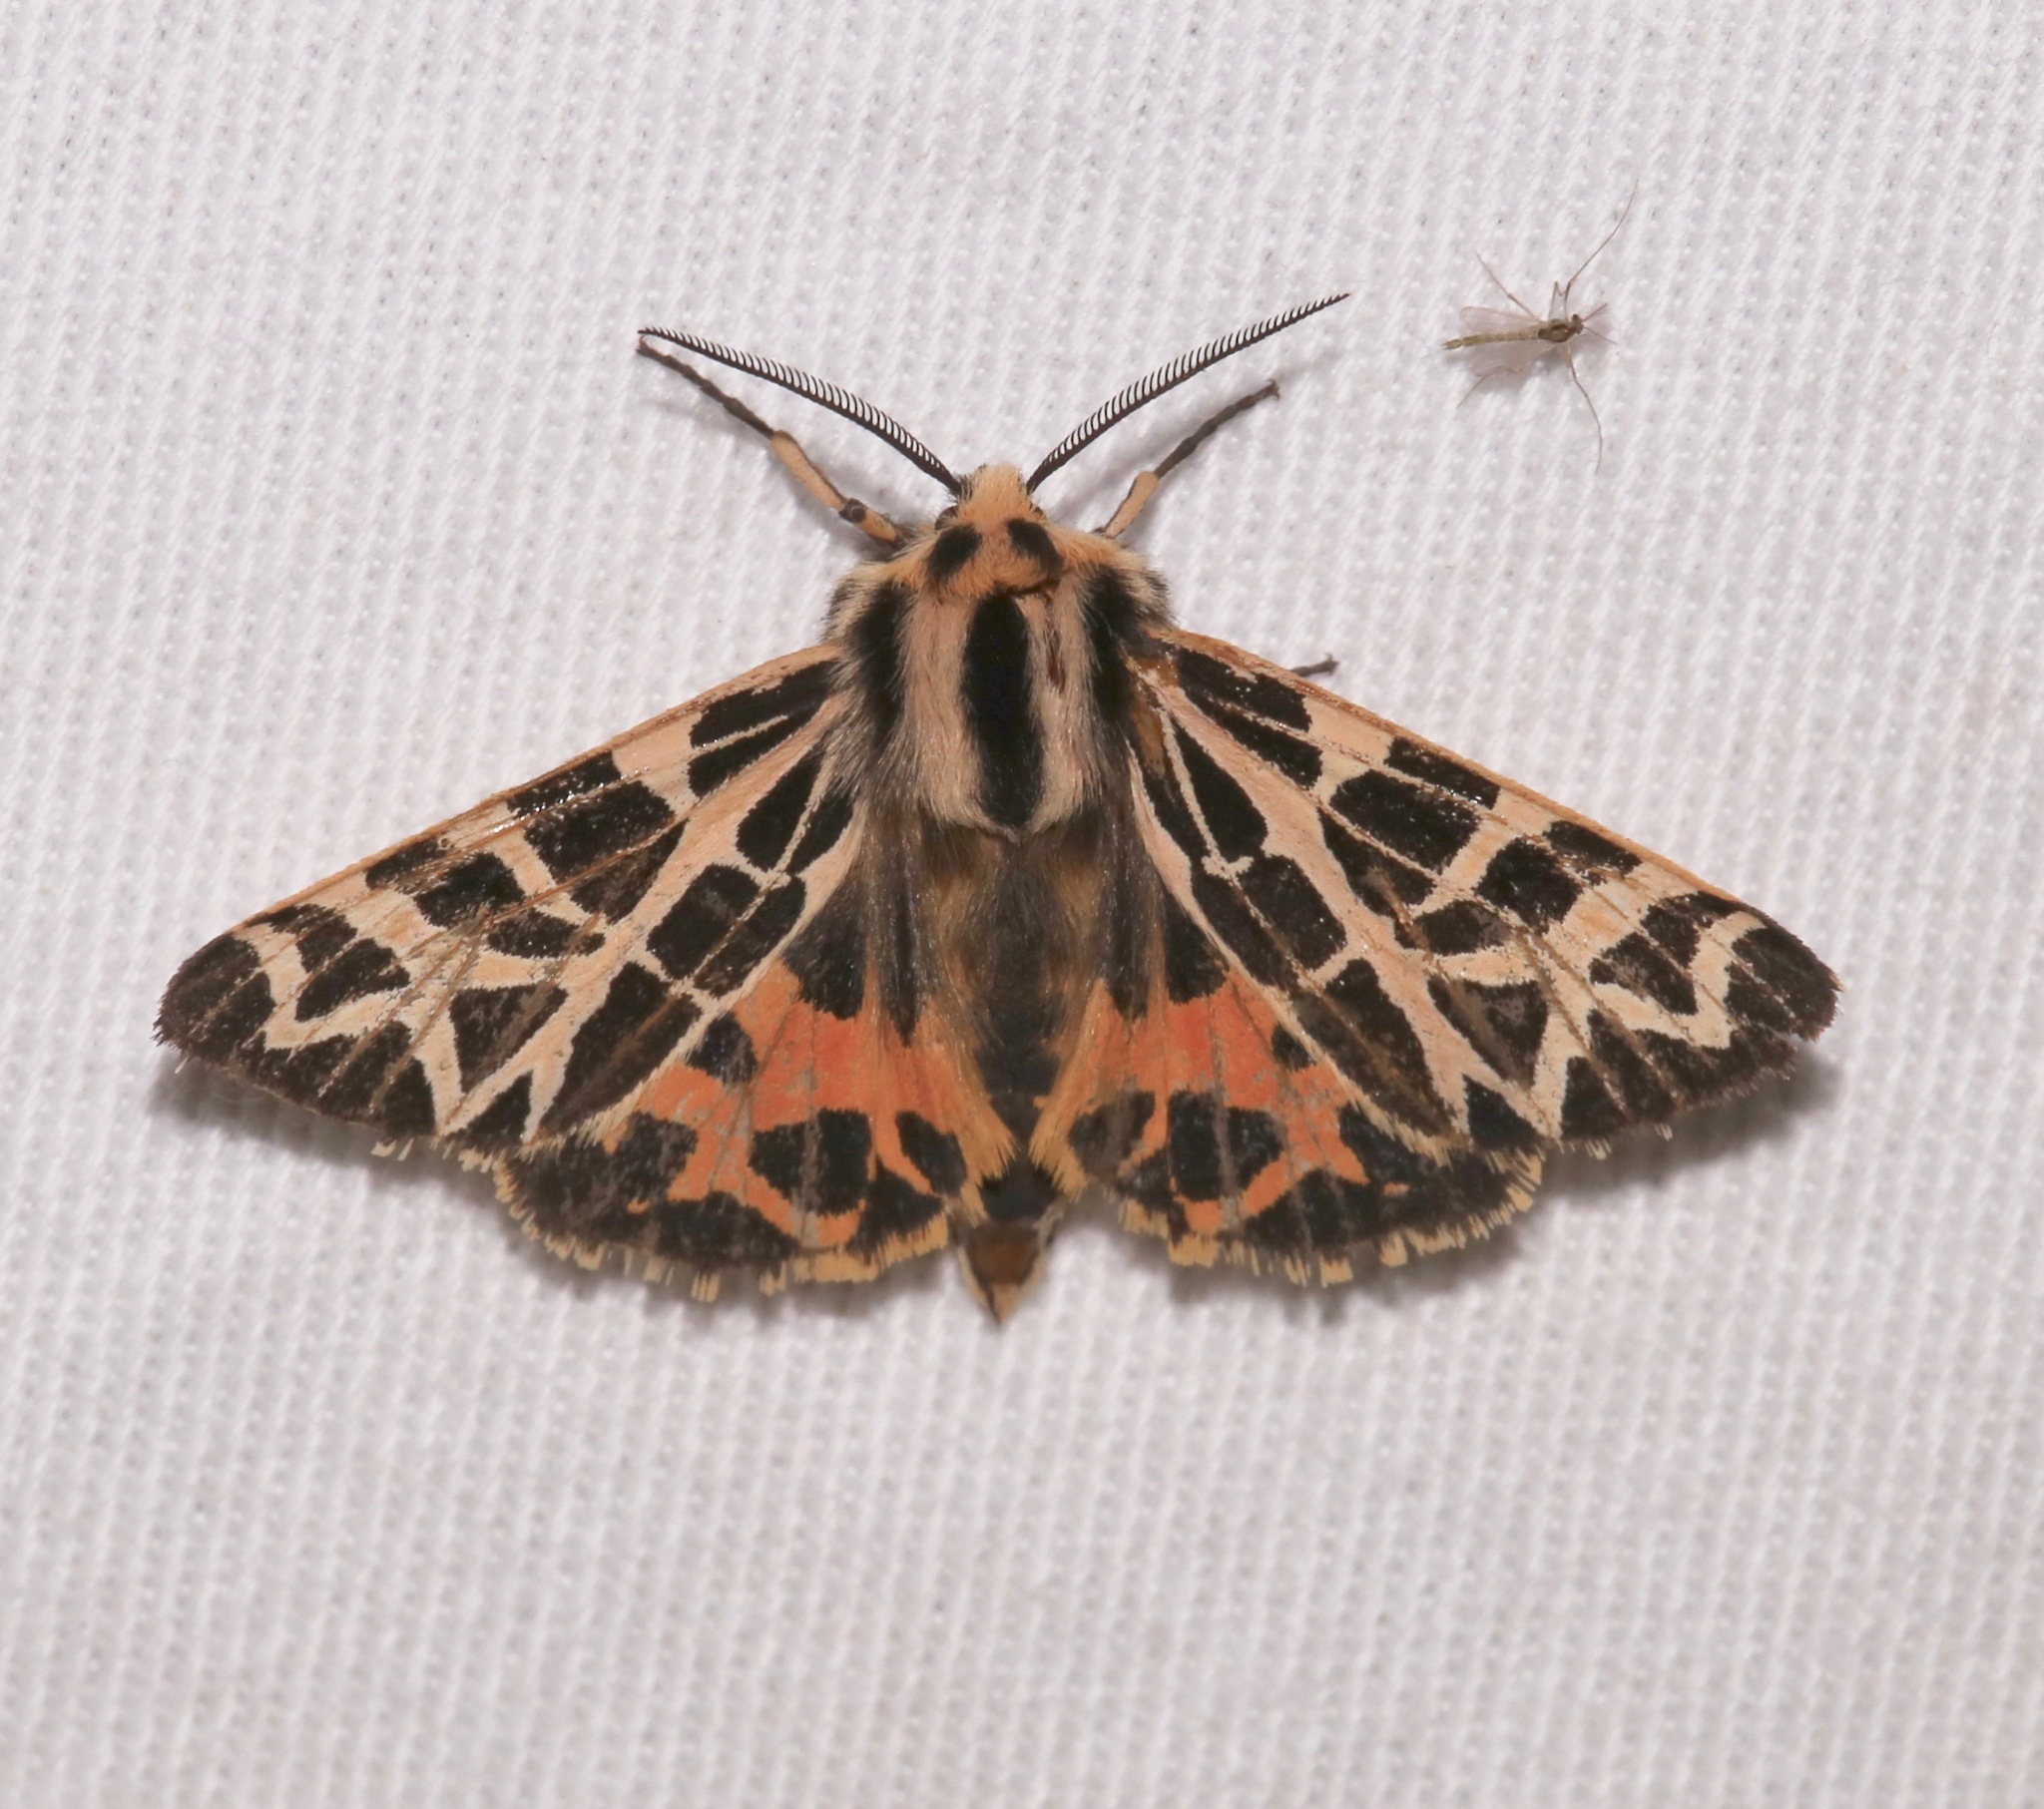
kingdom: Animalia
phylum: Arthropoda
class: Insecta
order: Lepidoptera
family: Erebidae
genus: Apantesis
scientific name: Apantesis
